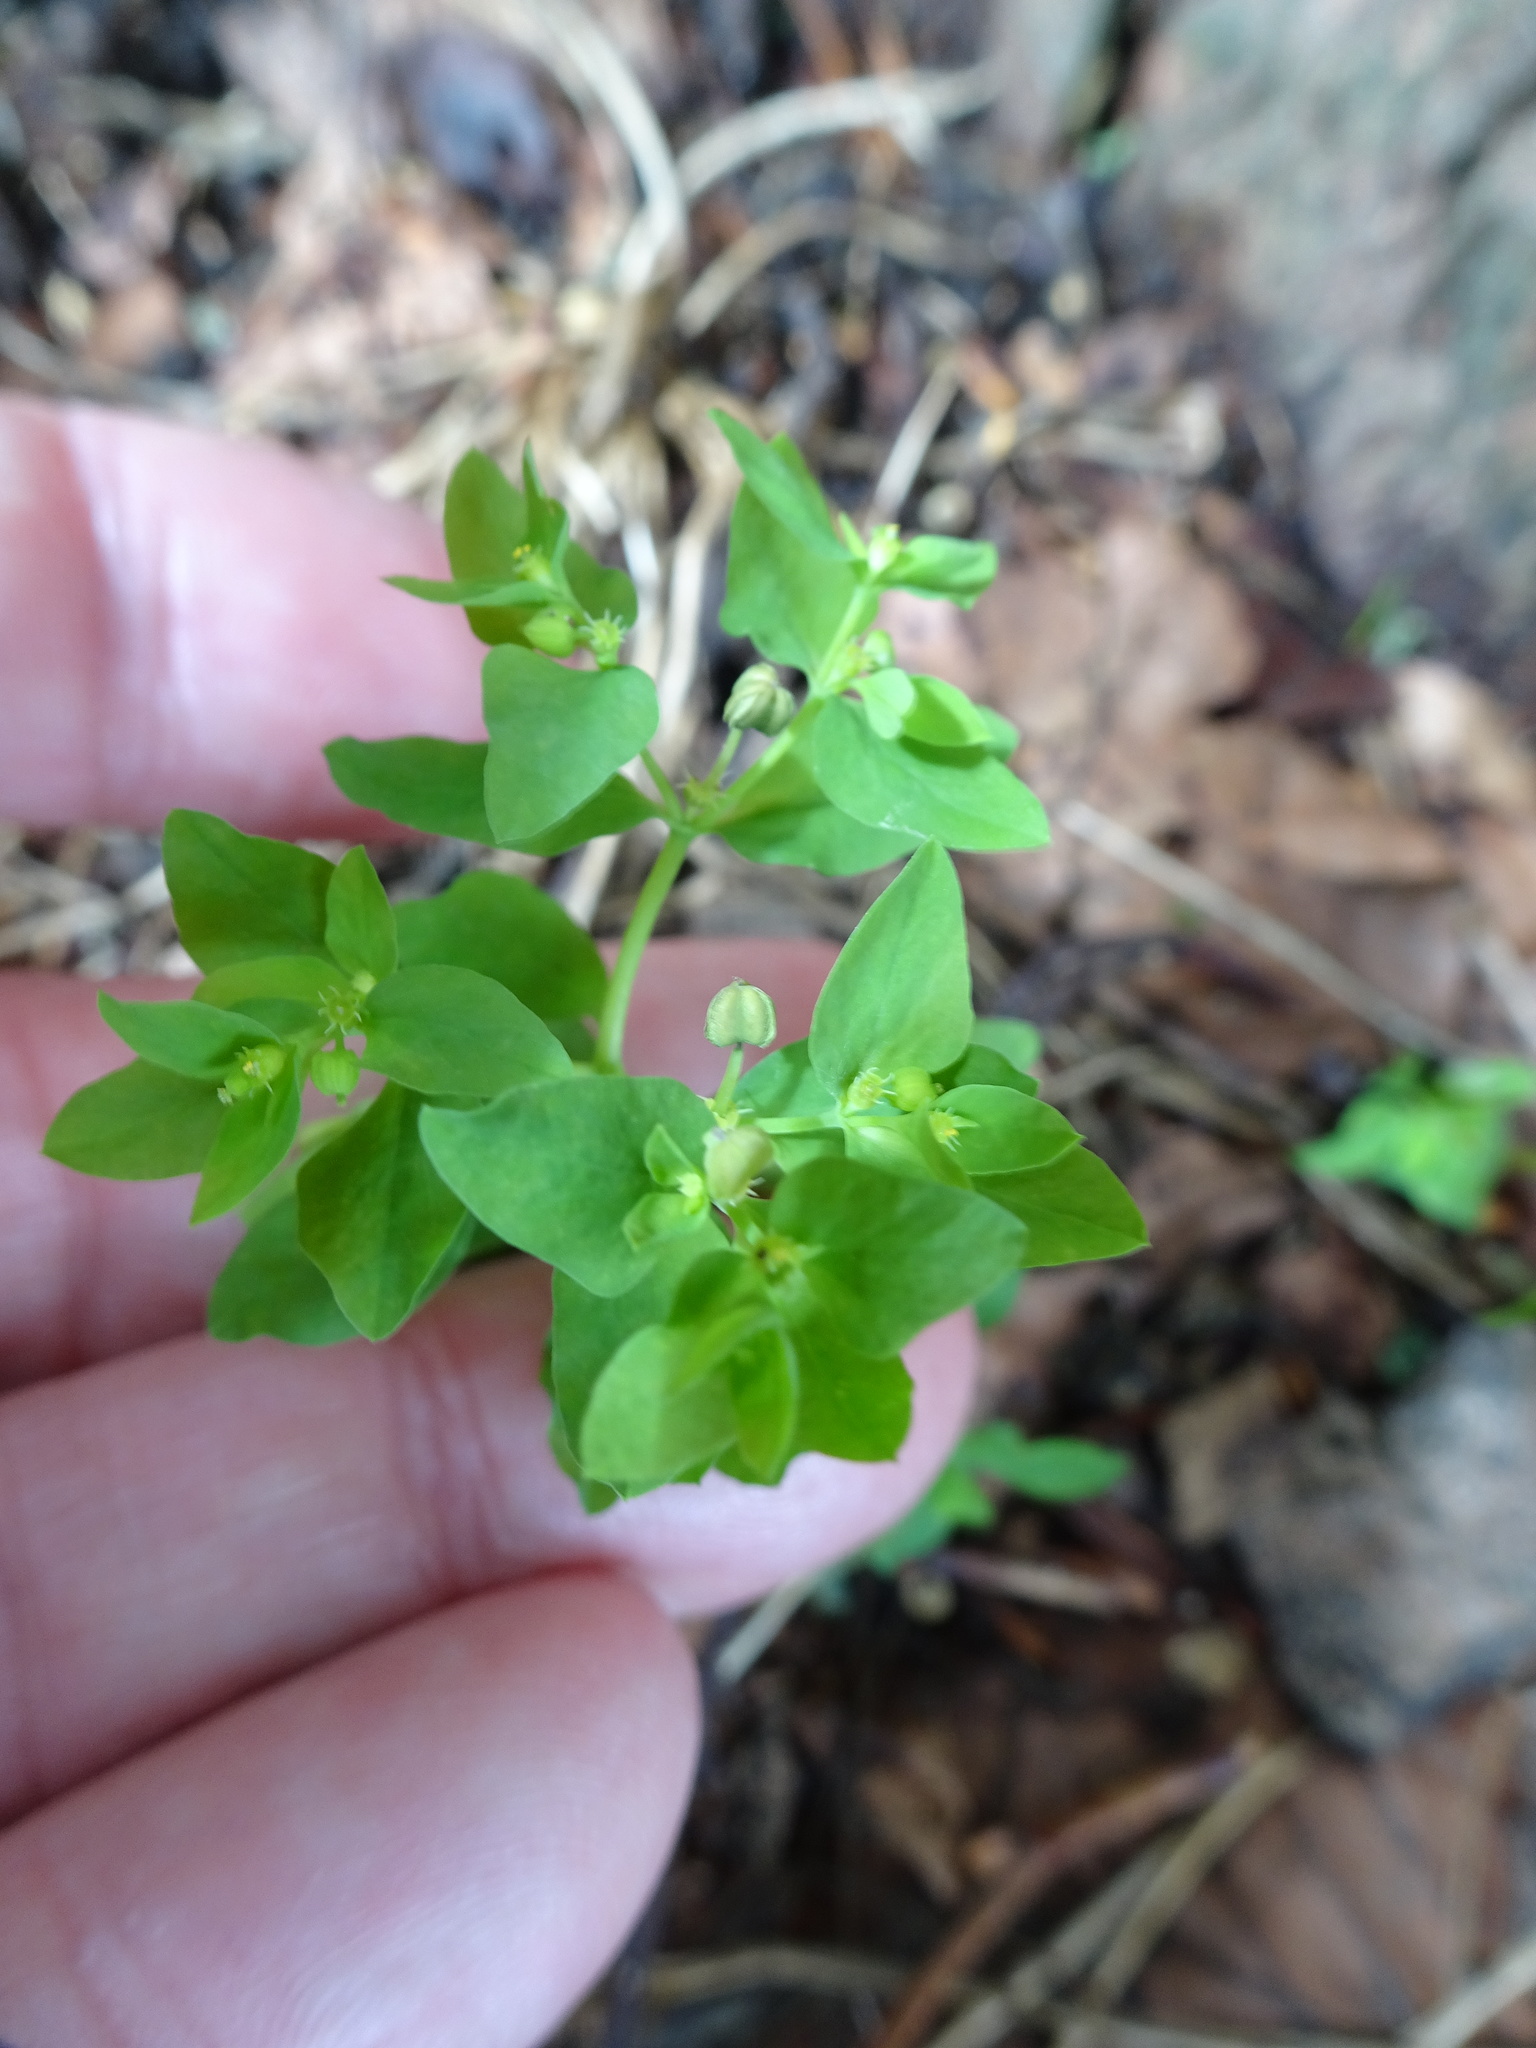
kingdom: Plantae
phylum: Tracheophyta
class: Magnoliopsida
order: Malpighiales
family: Euphorbiaceae
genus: Euphorbia
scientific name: Euphorbia peplus
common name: Petty spurge
